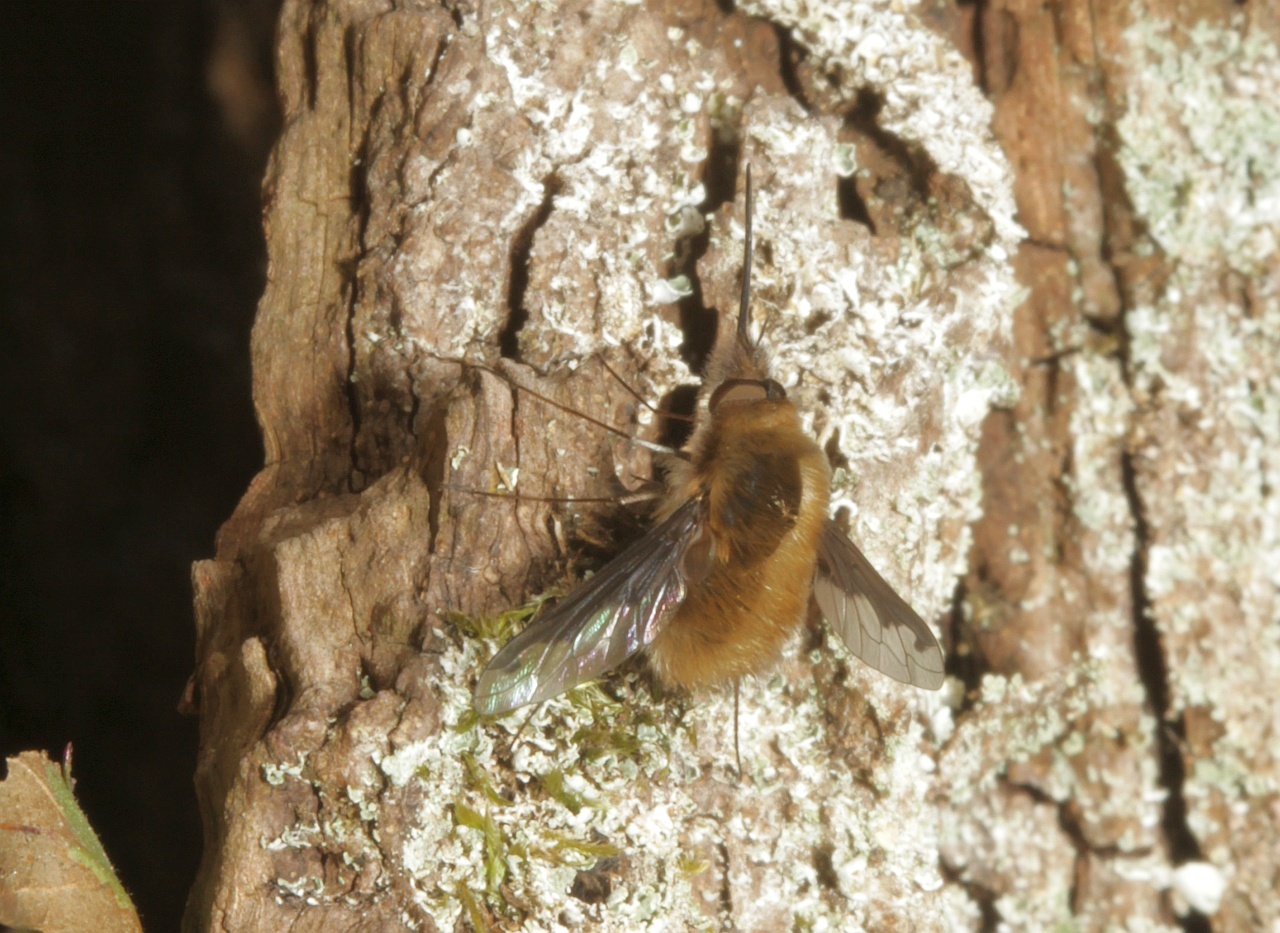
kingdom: Animalia
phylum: Arthropoda
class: Insecta
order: Diptera
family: Bombyliidae
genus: Bombylius
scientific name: Bombylius major
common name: Bee fly
